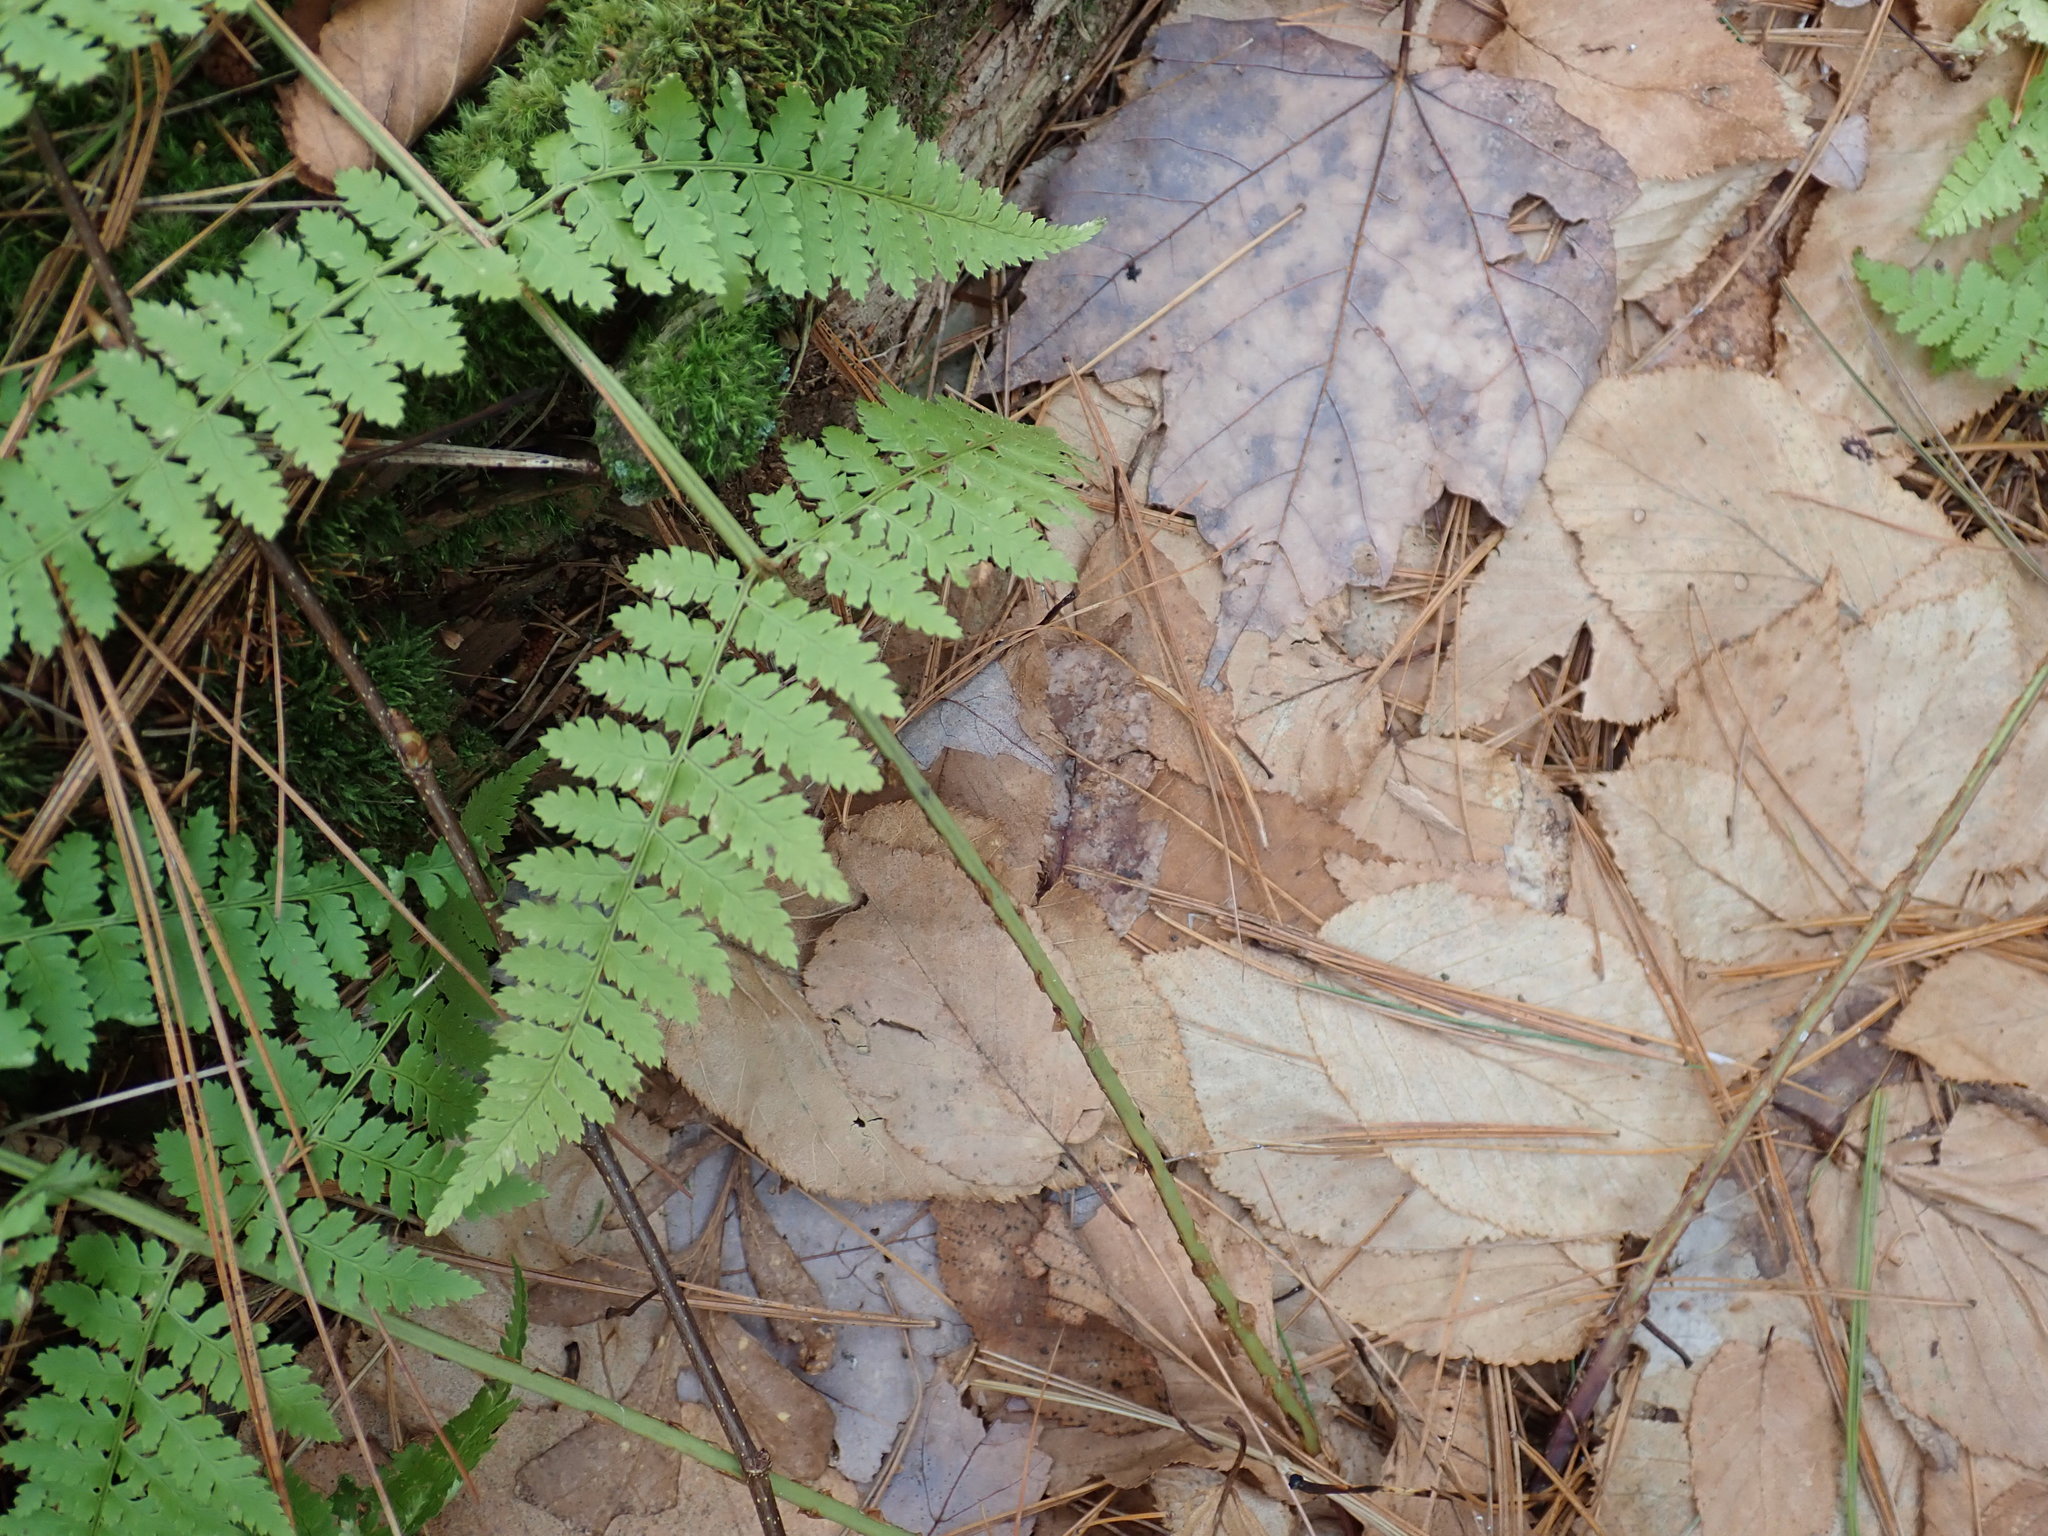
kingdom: Plantae
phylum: Tracheophyta
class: Polypodiopsida
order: Polypodiales
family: Dryopteridaceae
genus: Dryopteris
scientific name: Dryopteris intermedia
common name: Evergreen wood fern
